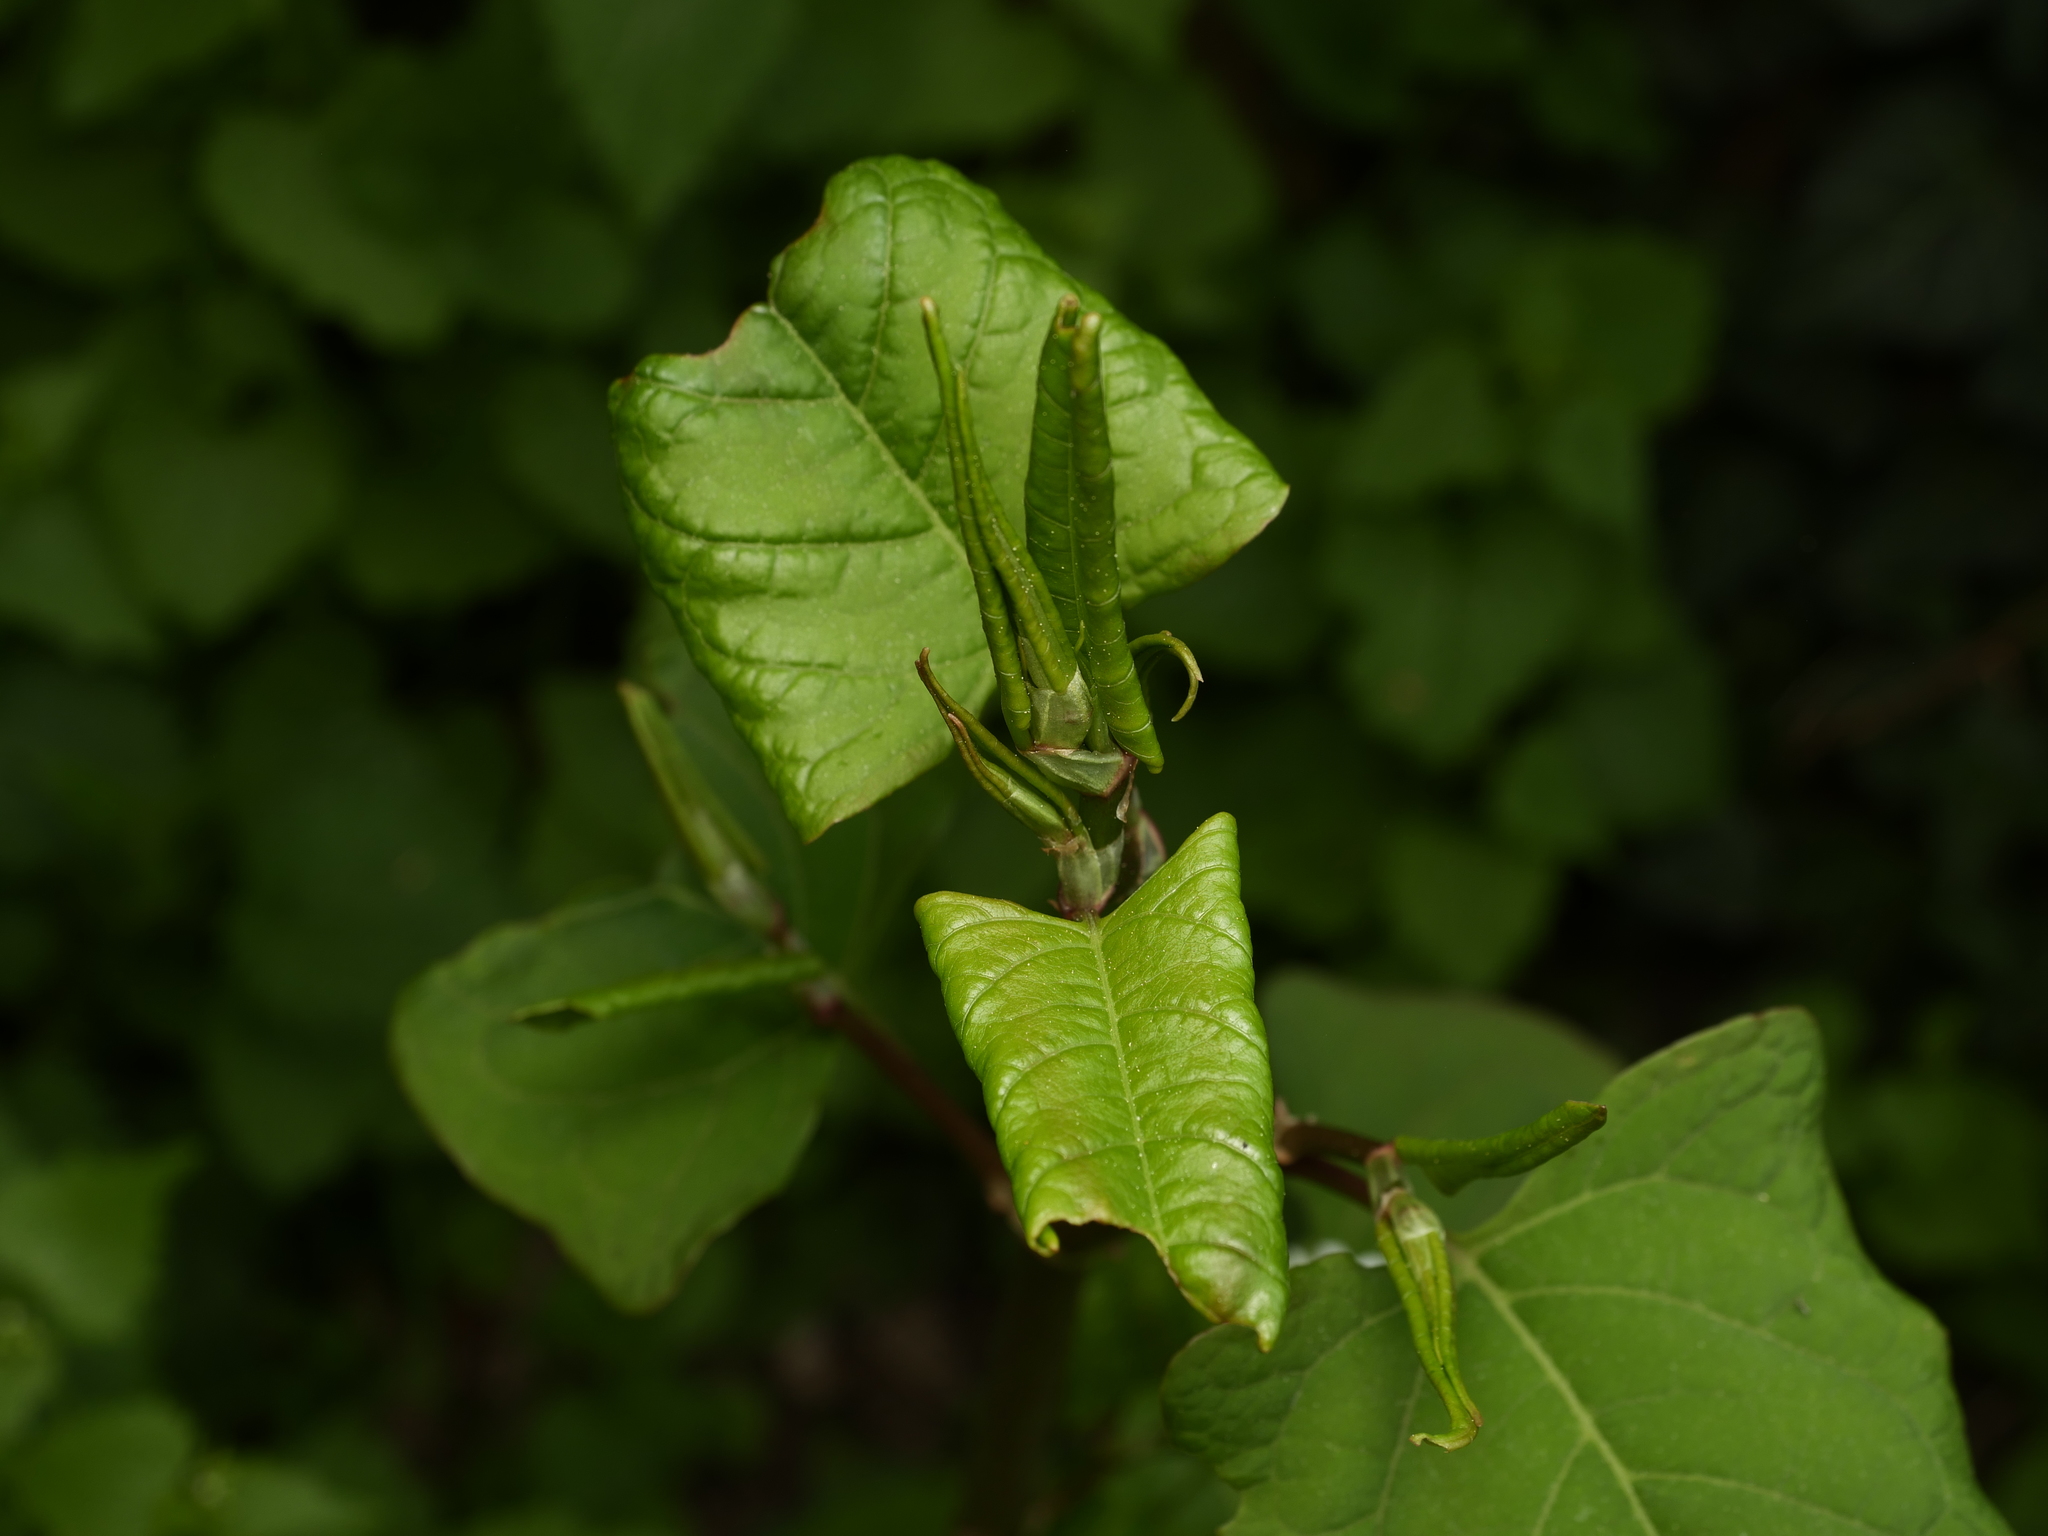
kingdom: Plantae
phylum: Tracheophyta
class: Magnoliopsida
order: Caryophyllales
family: Polygonaceae
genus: Reynoutria
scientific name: Reynoutria japonica
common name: Japanese knotweed
